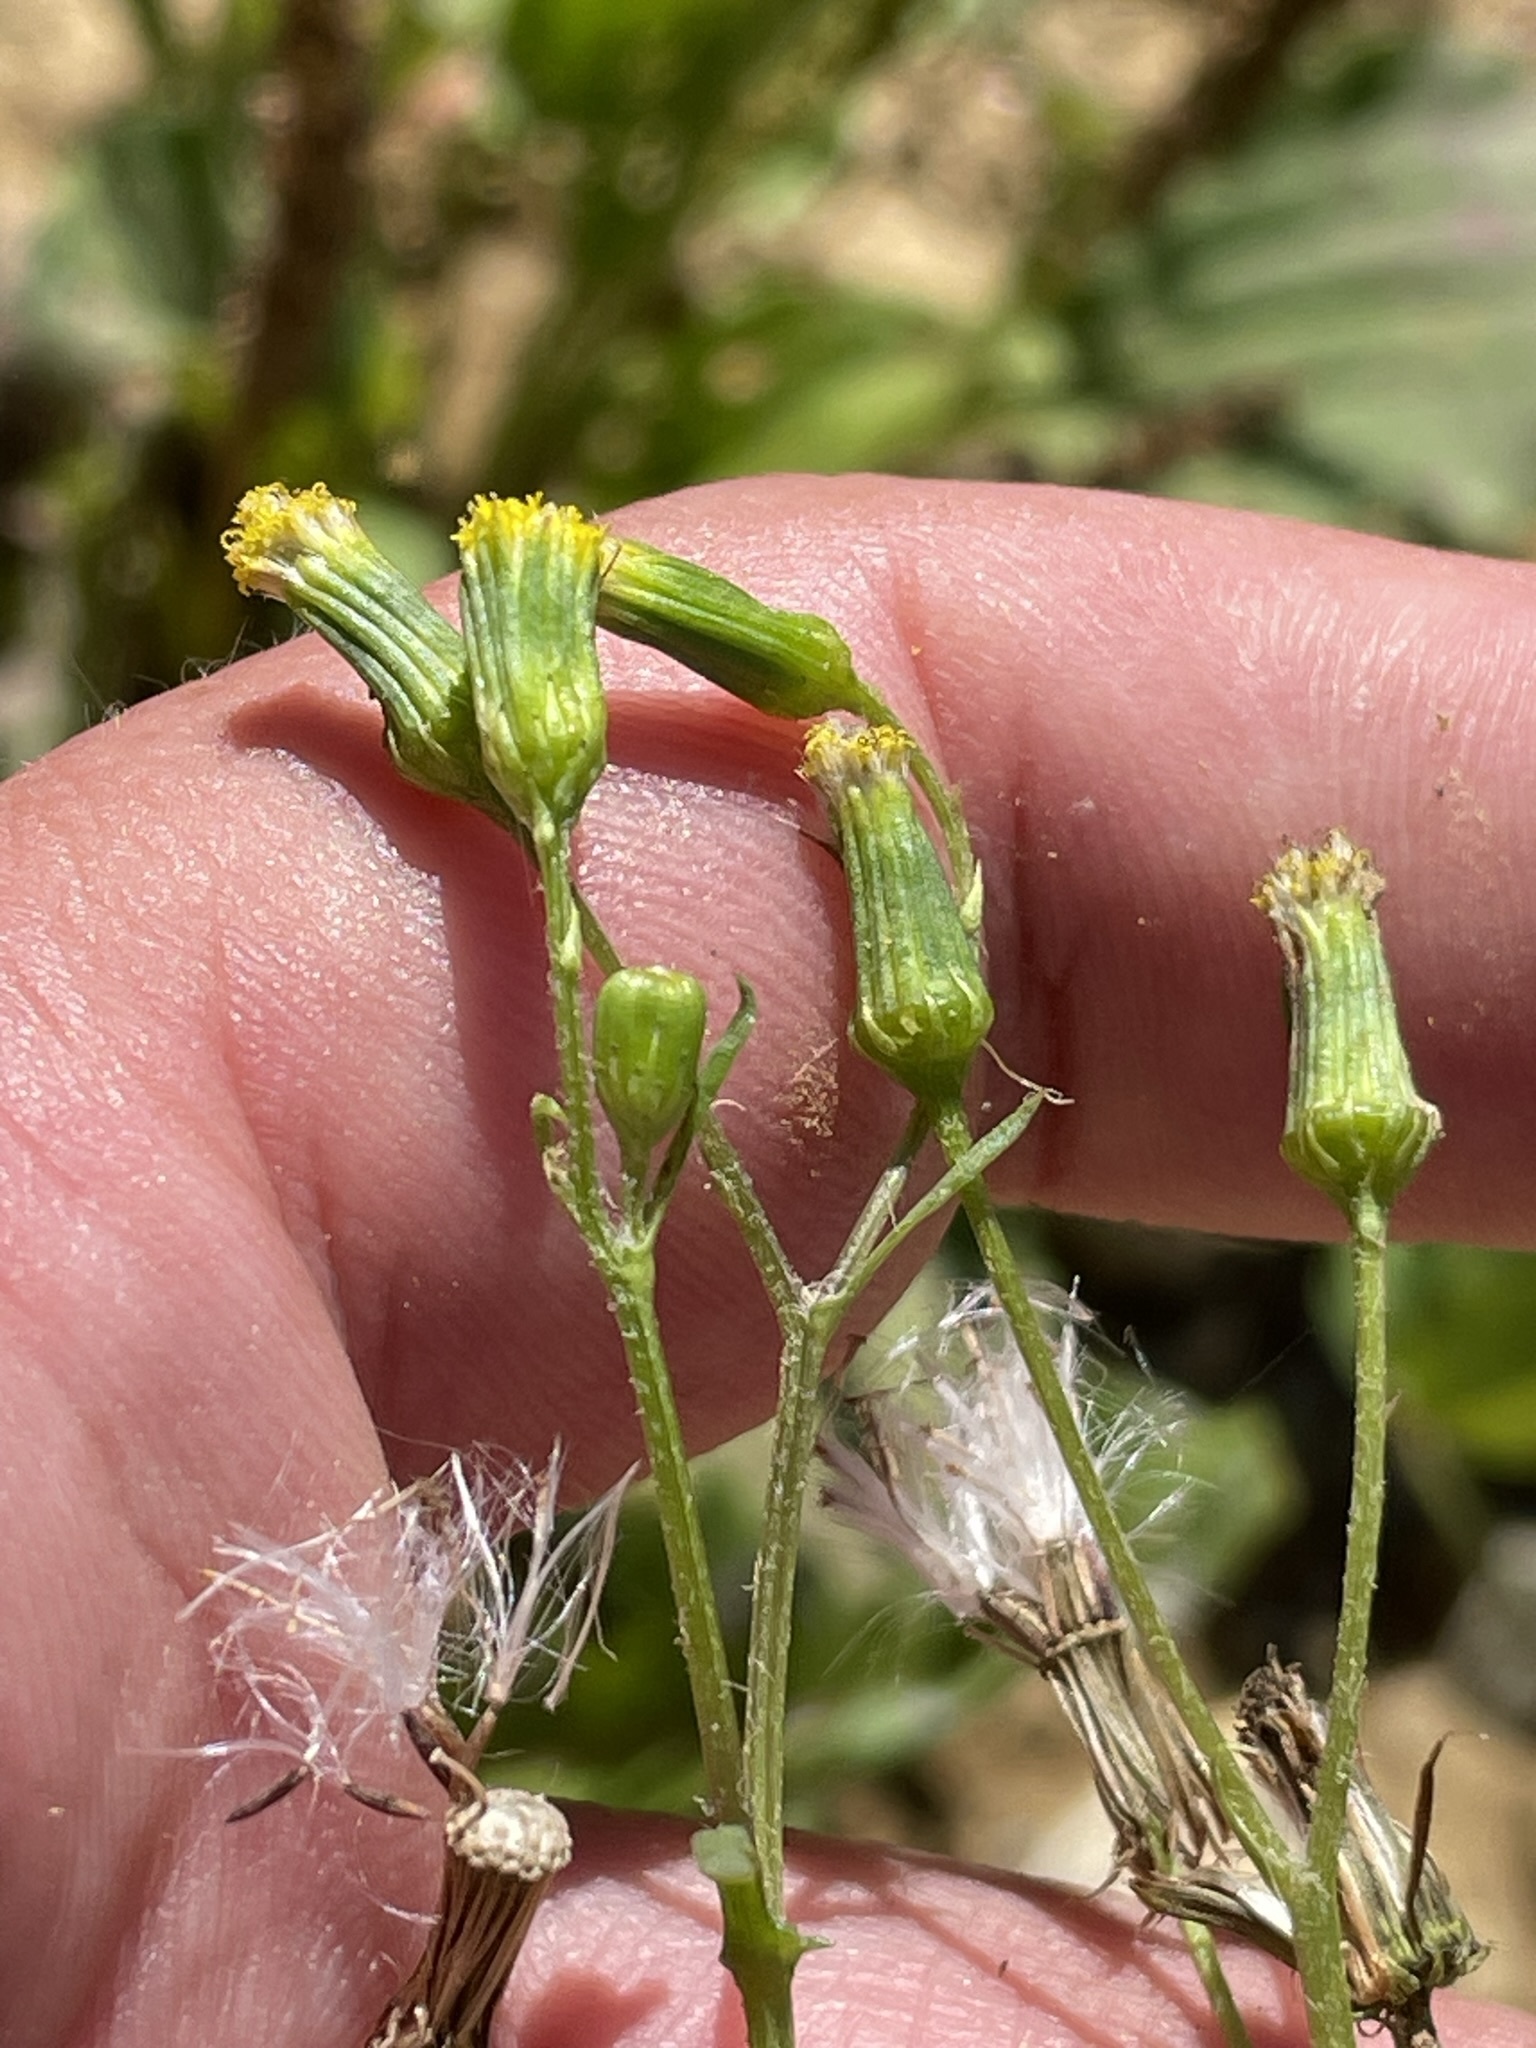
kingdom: Plantae
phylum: Tracheophyta
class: Magnoliopsida
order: Asterales
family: Asteraceae
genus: Senecio
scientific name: Senecio vulgaris
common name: Old-man-in-the-spring
